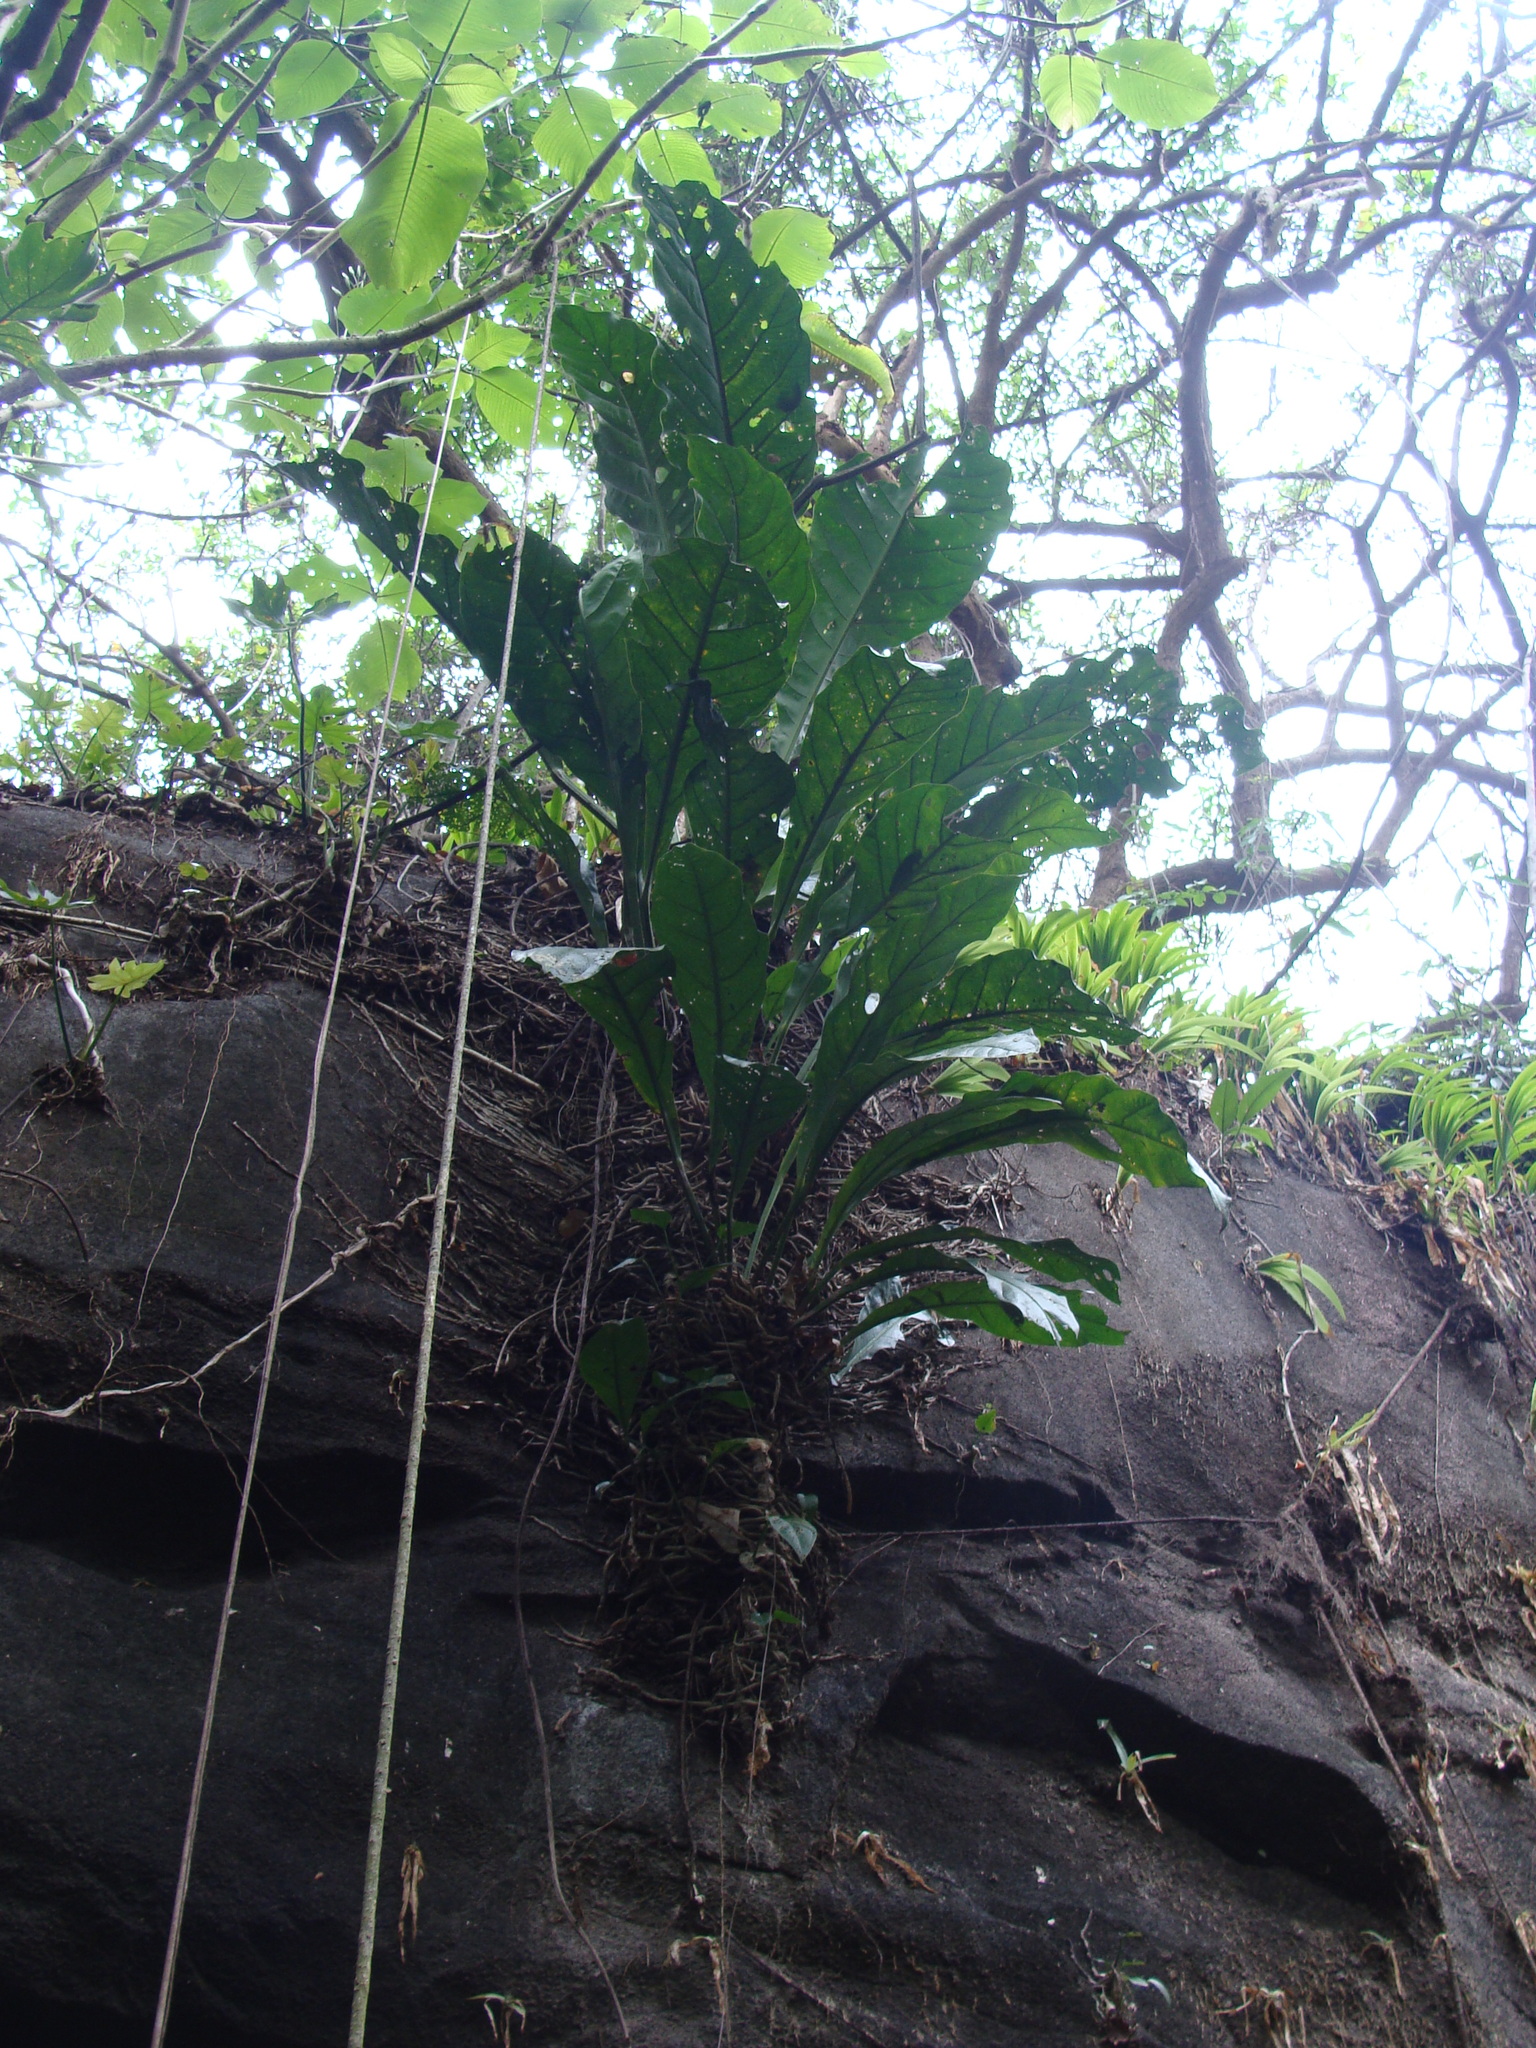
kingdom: Plantae
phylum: Tracheophyta
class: Liliopsida
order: Alismatales
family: Araceae
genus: Anthurium
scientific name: Anthurium salvinii
